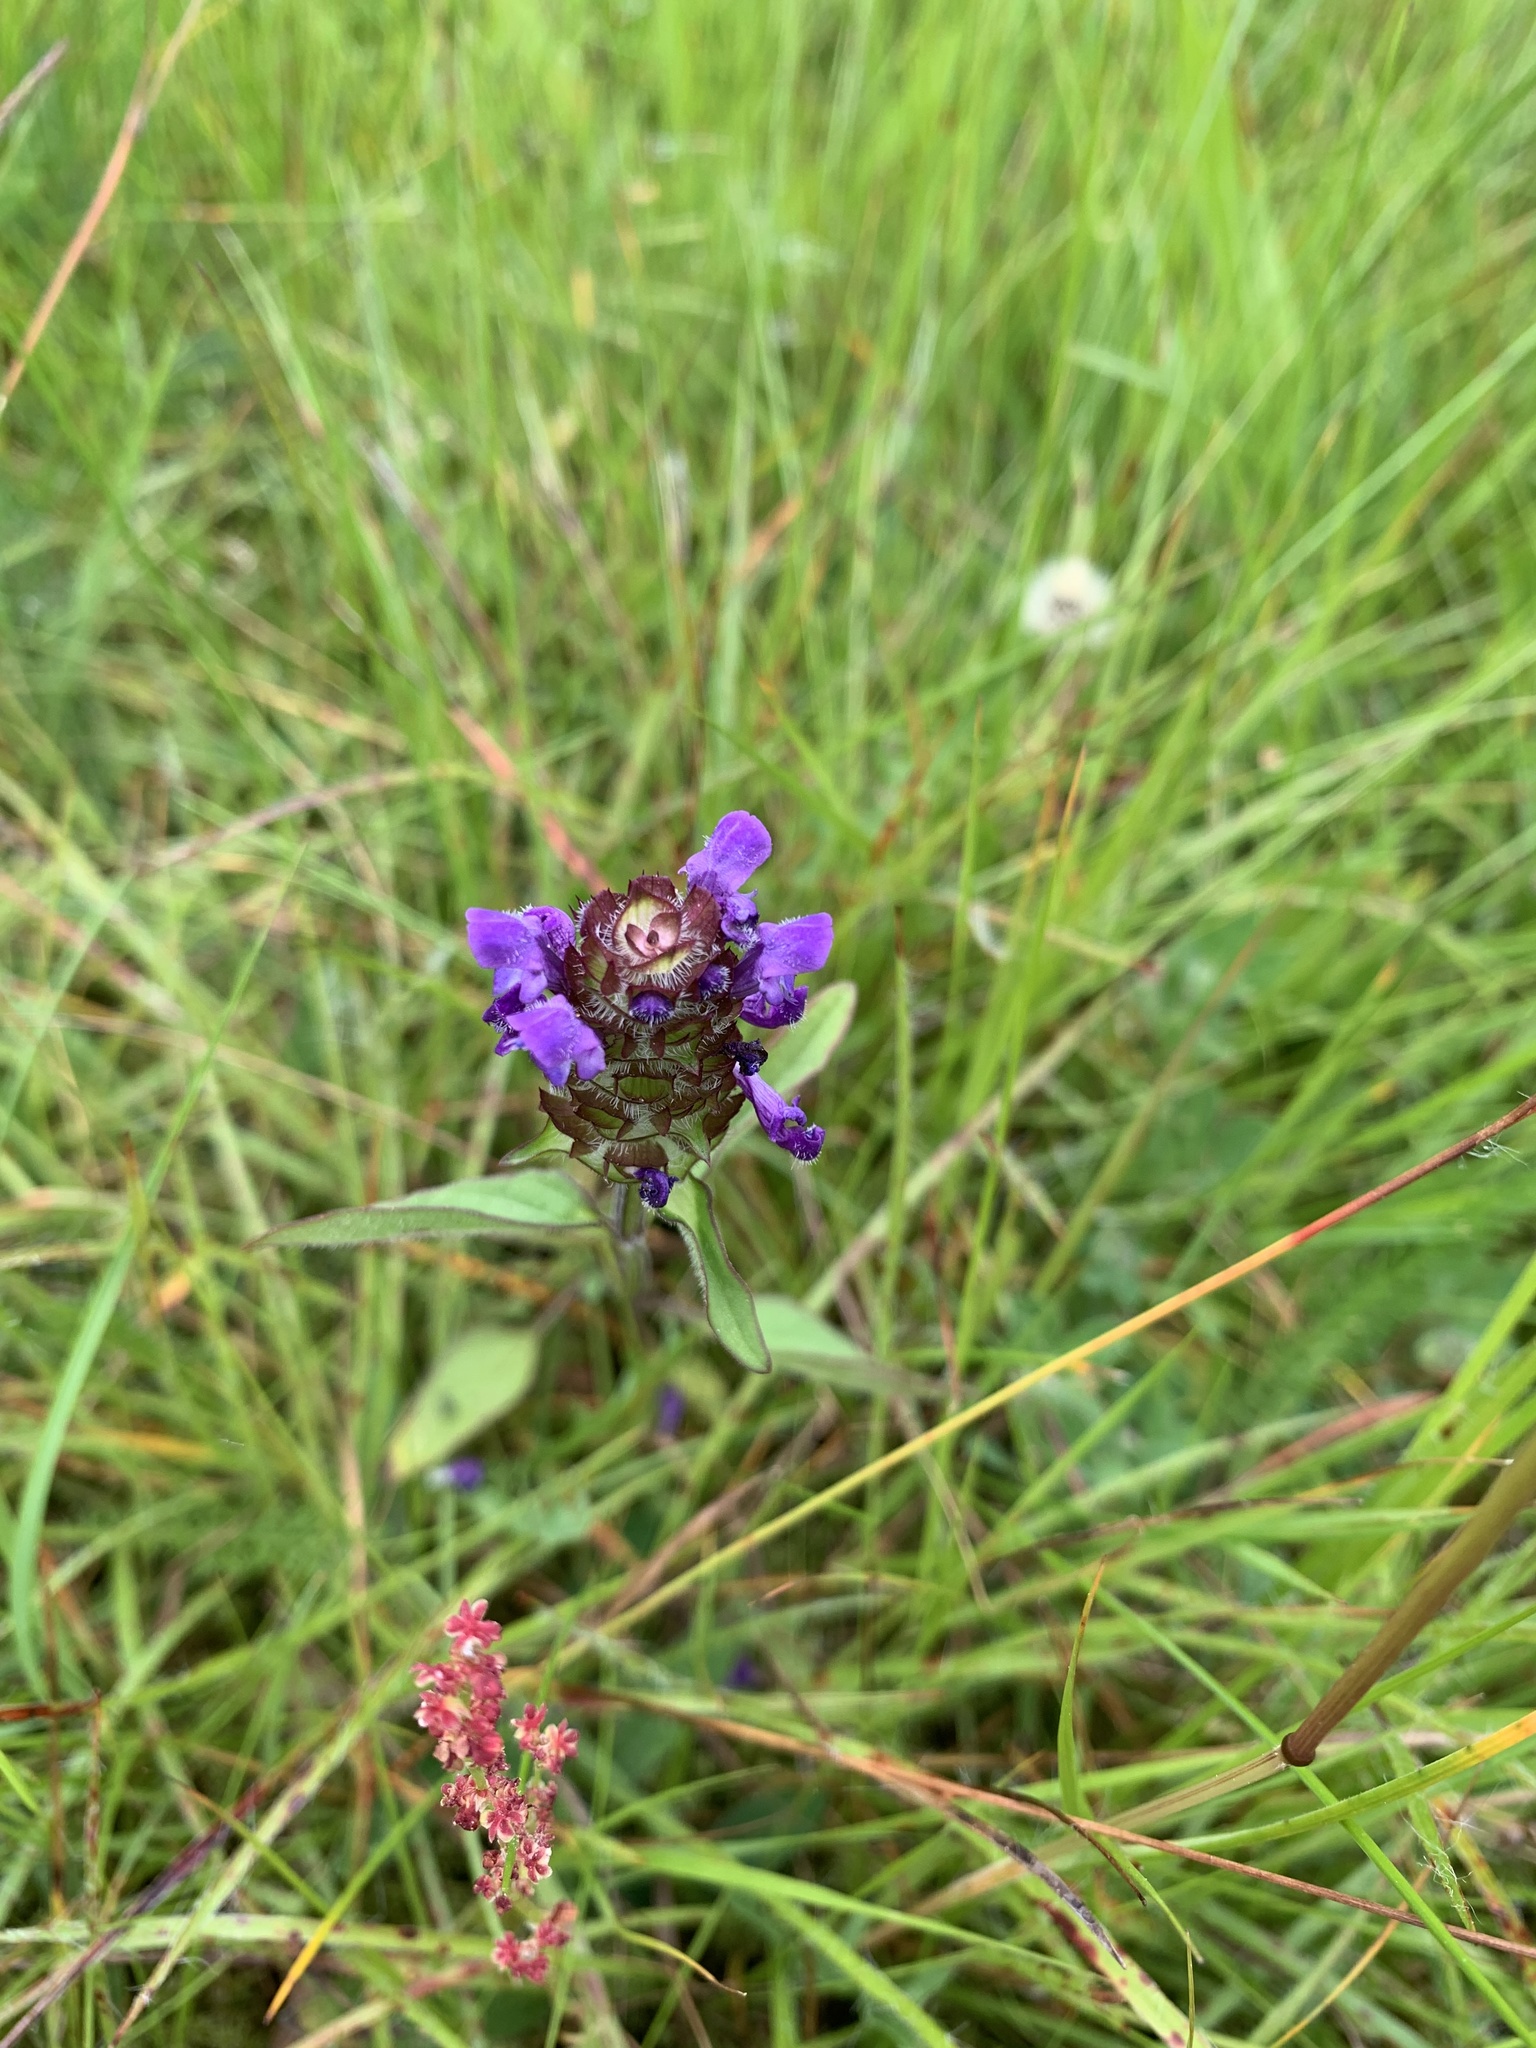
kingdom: Plantae
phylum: Tracheophyta
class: Magnoliopsida
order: Lamiales
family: Lamiaceae
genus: Prunella
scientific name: Prunella vulgaris
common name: Heal-all
